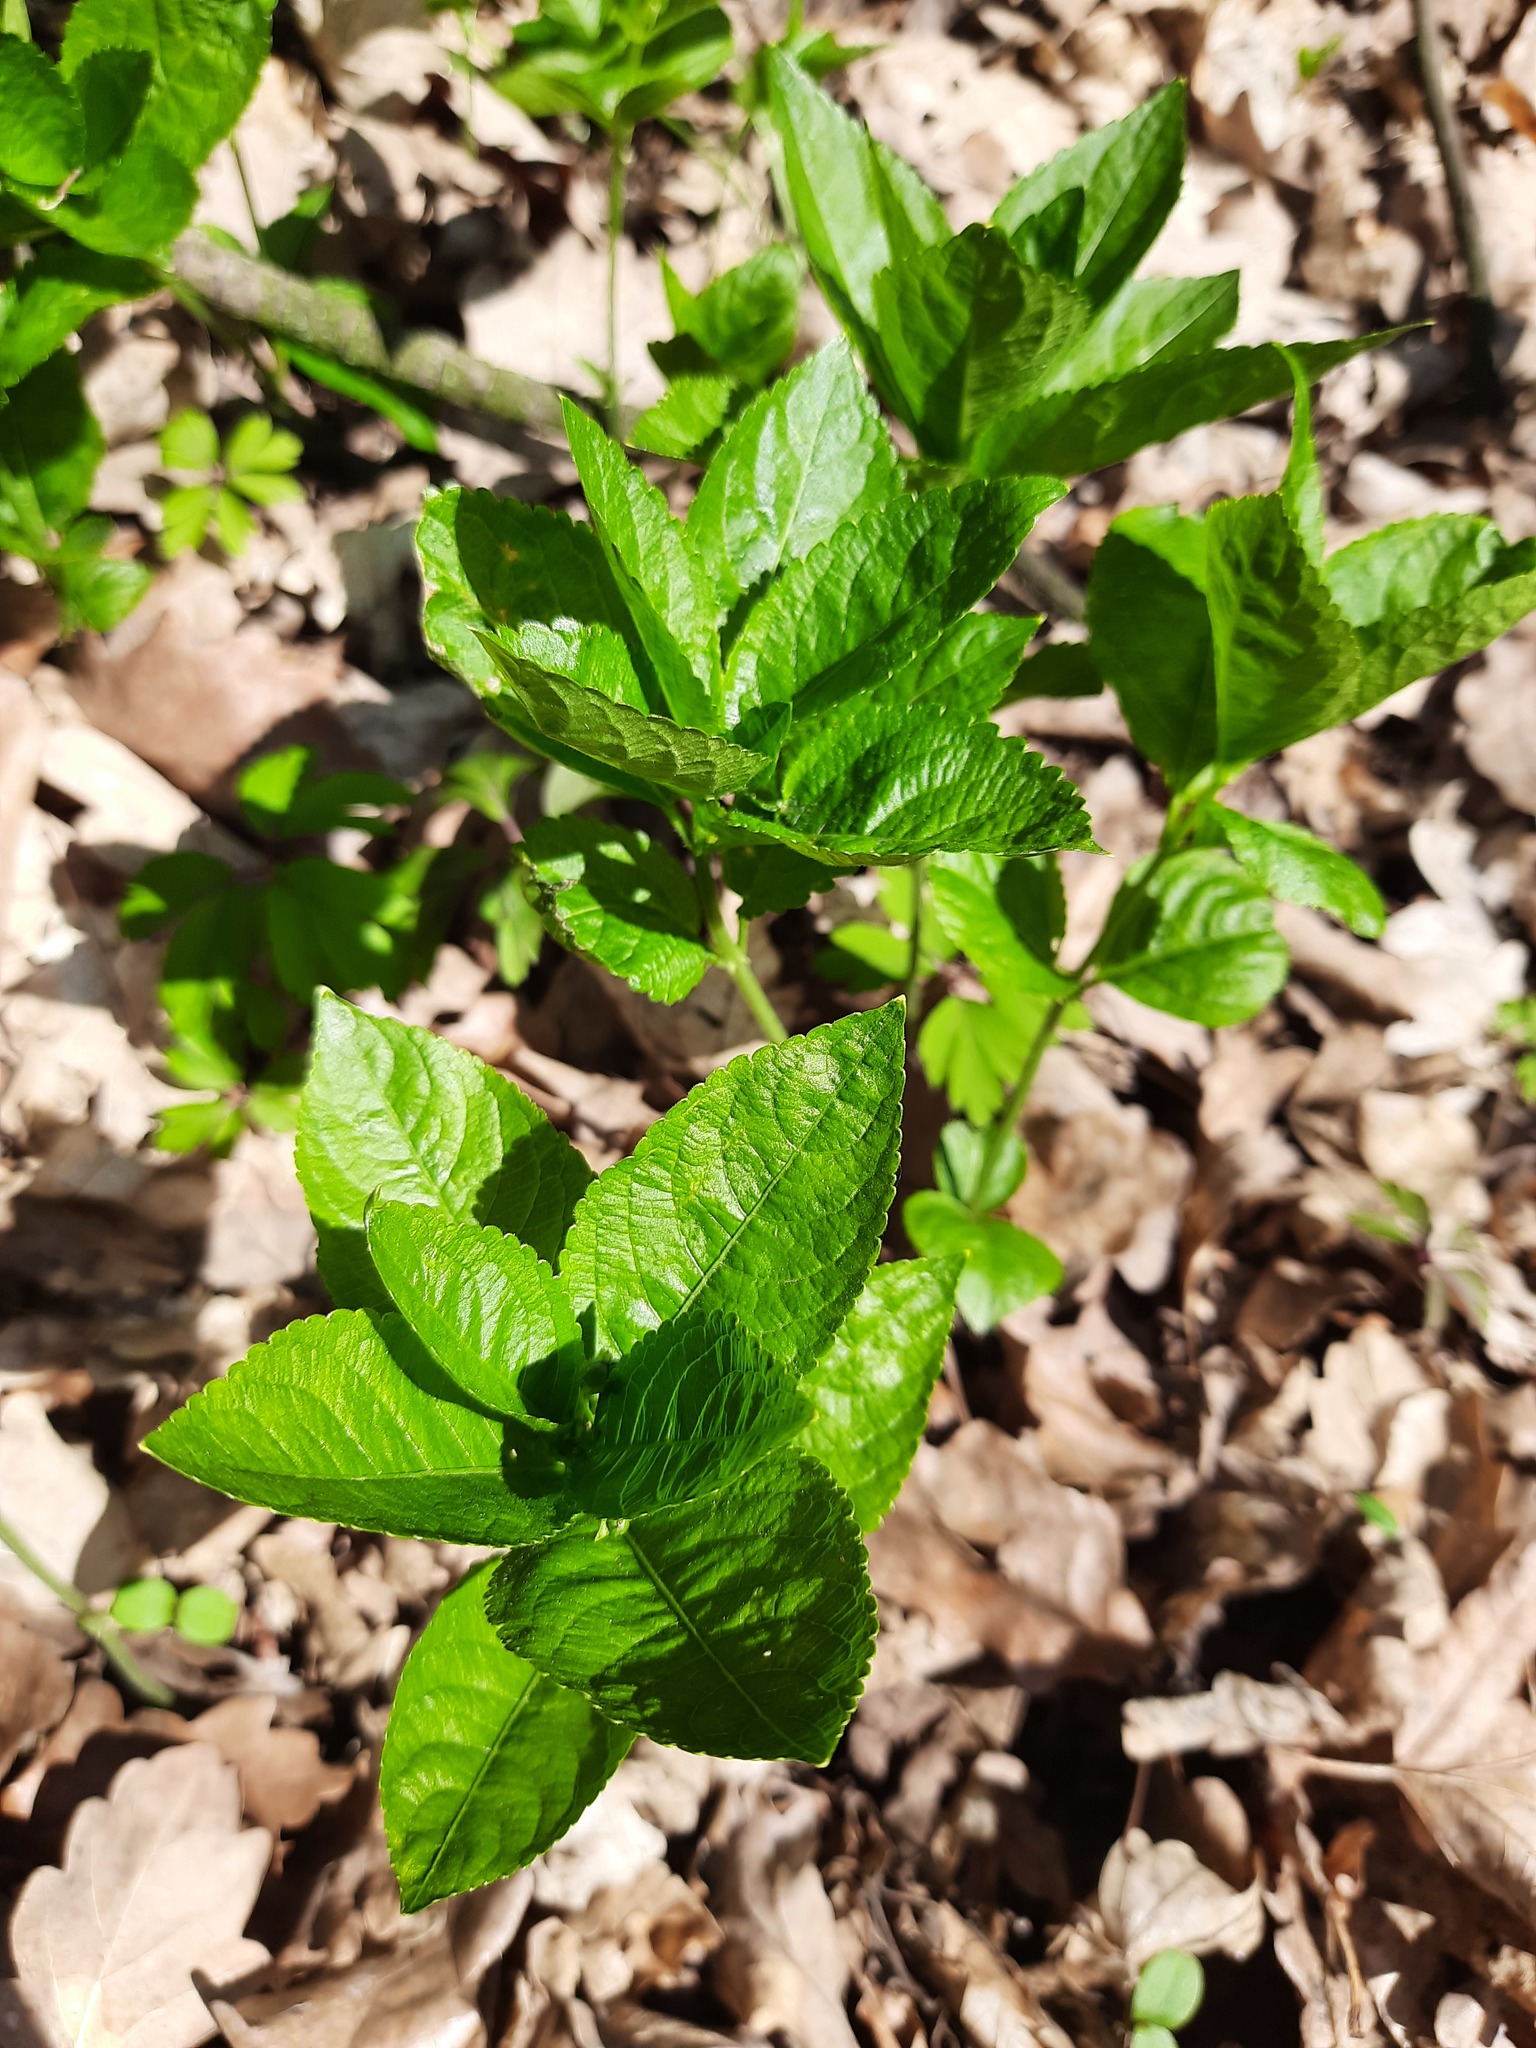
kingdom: Plantae
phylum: Tracheophyta
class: Magnoliopsida
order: Malpighiales
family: Euphorbiaceae
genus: Mercurialis
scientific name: Mercurialis perennis
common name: Dog mercury
